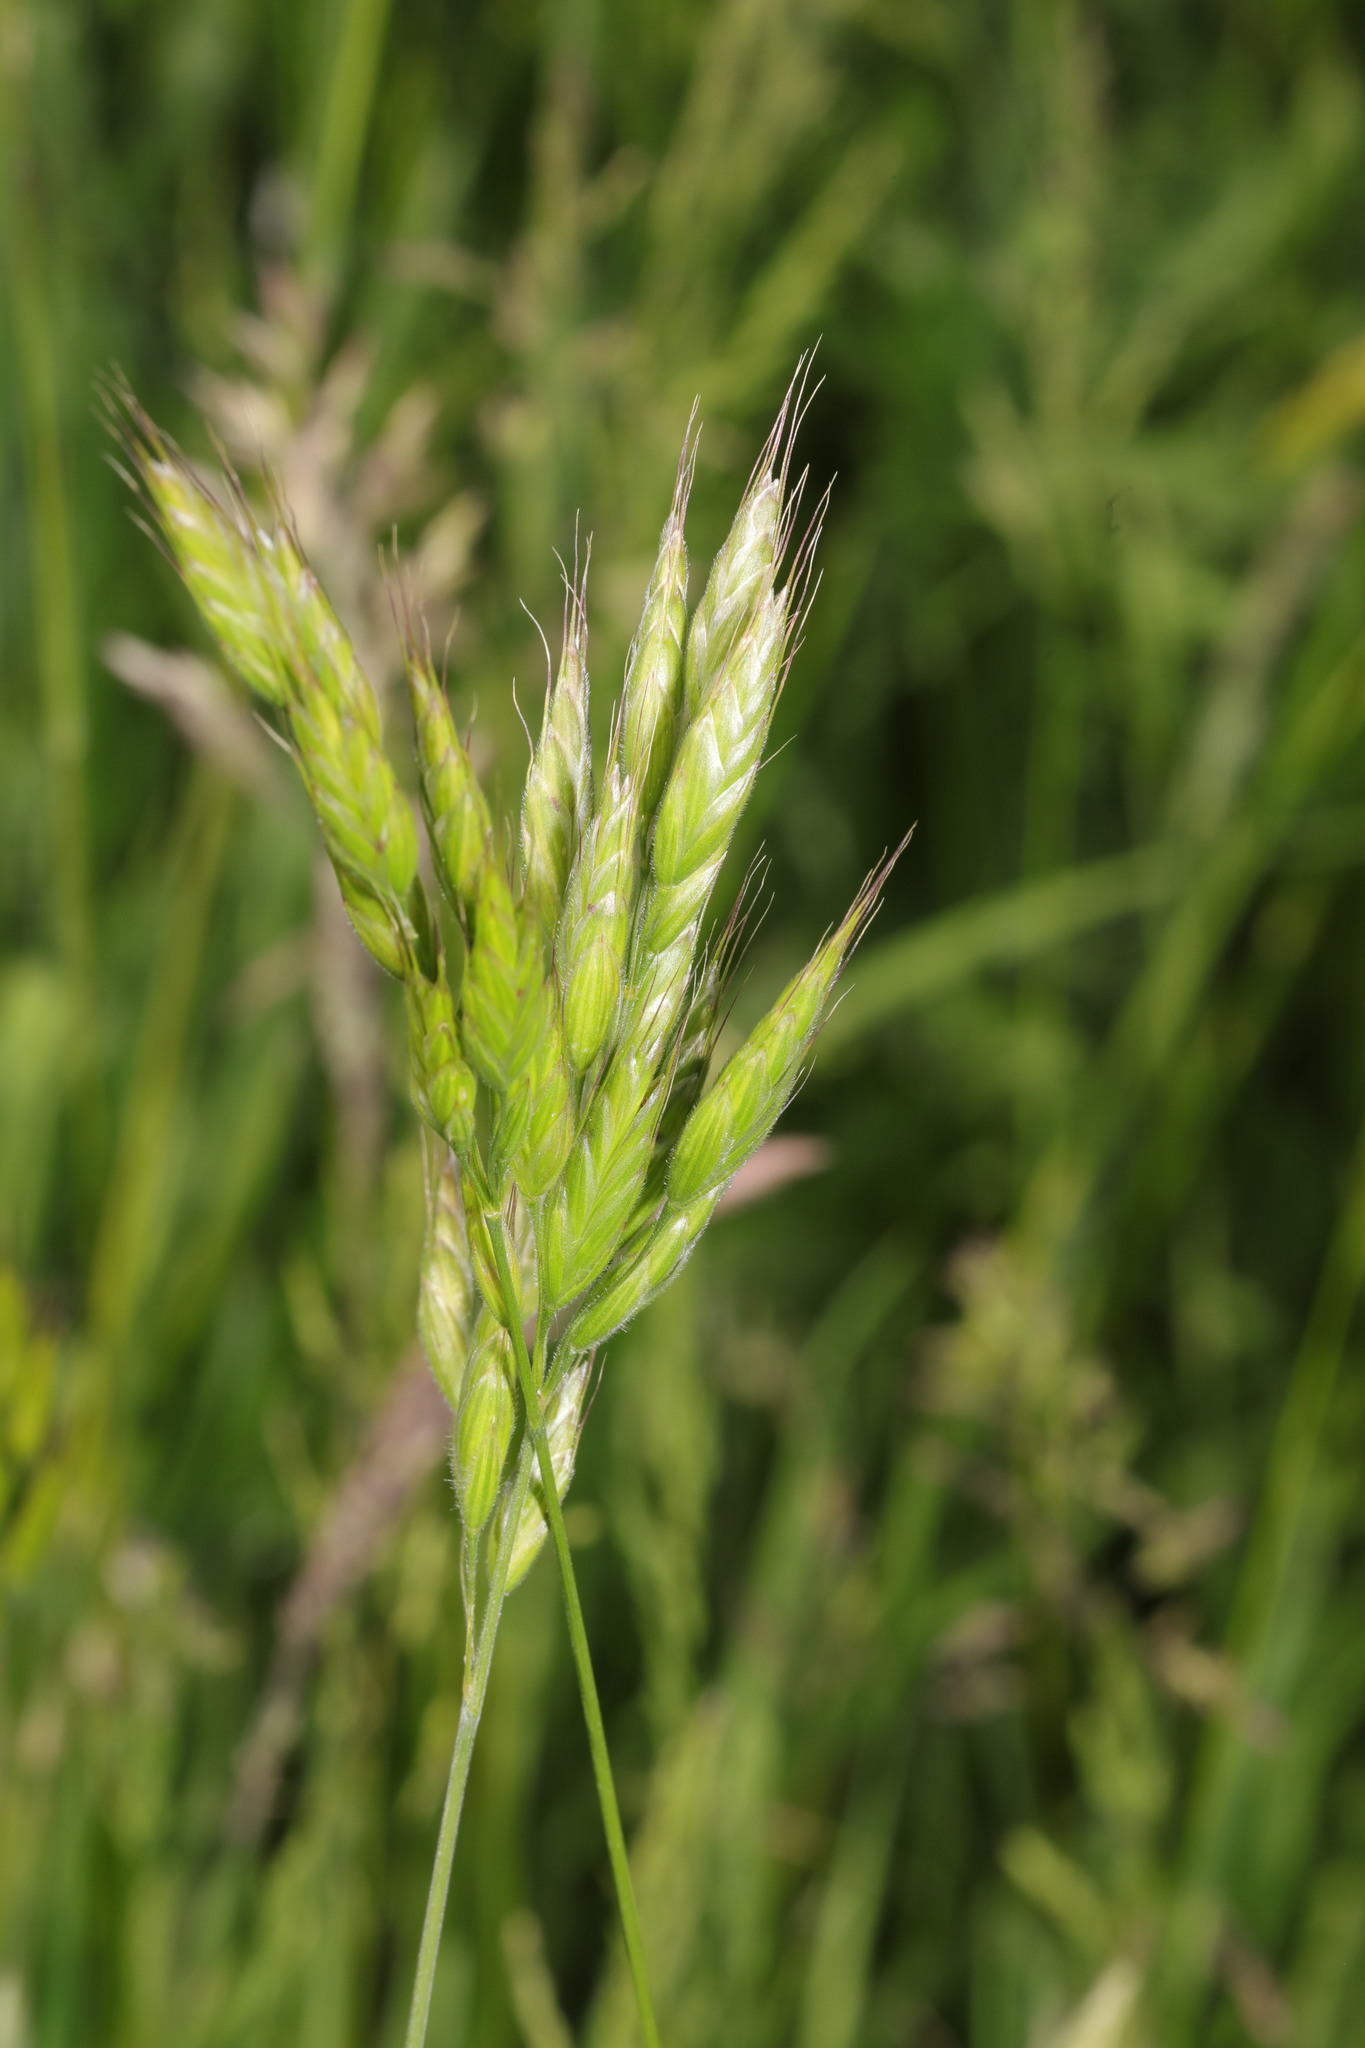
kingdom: Plantae
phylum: Tracheophyta
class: Liliopsida
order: Poales
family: Poaceae
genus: Bromus
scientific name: Bromus hordeaceus
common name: Soft brome
